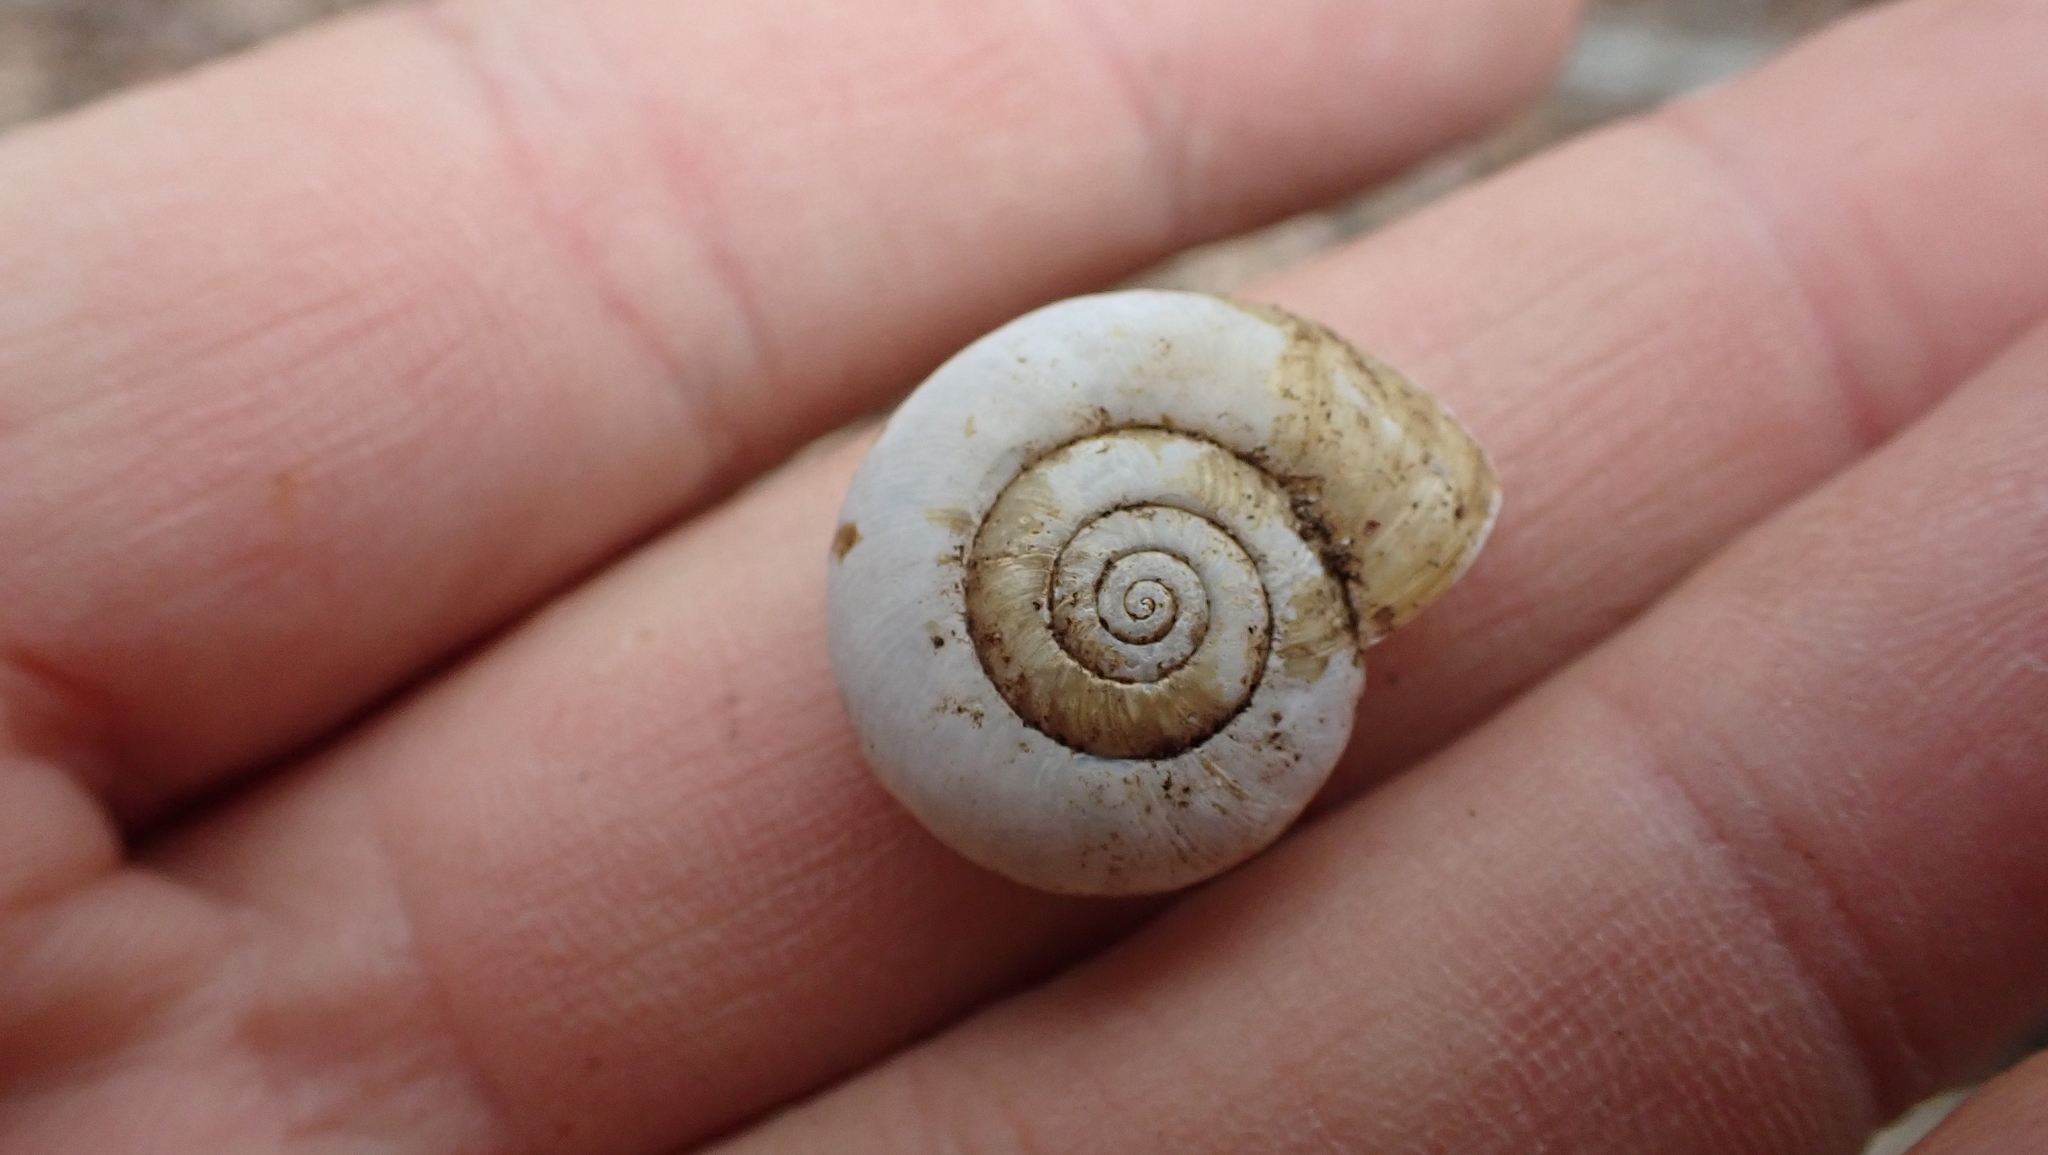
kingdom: Animalia
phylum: Mollusca
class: Gastropoda
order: Stylommatophora
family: Haplotrematidae
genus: Haplotrema
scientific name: Haplotrema concavum
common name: Gray-foot lancetooth
